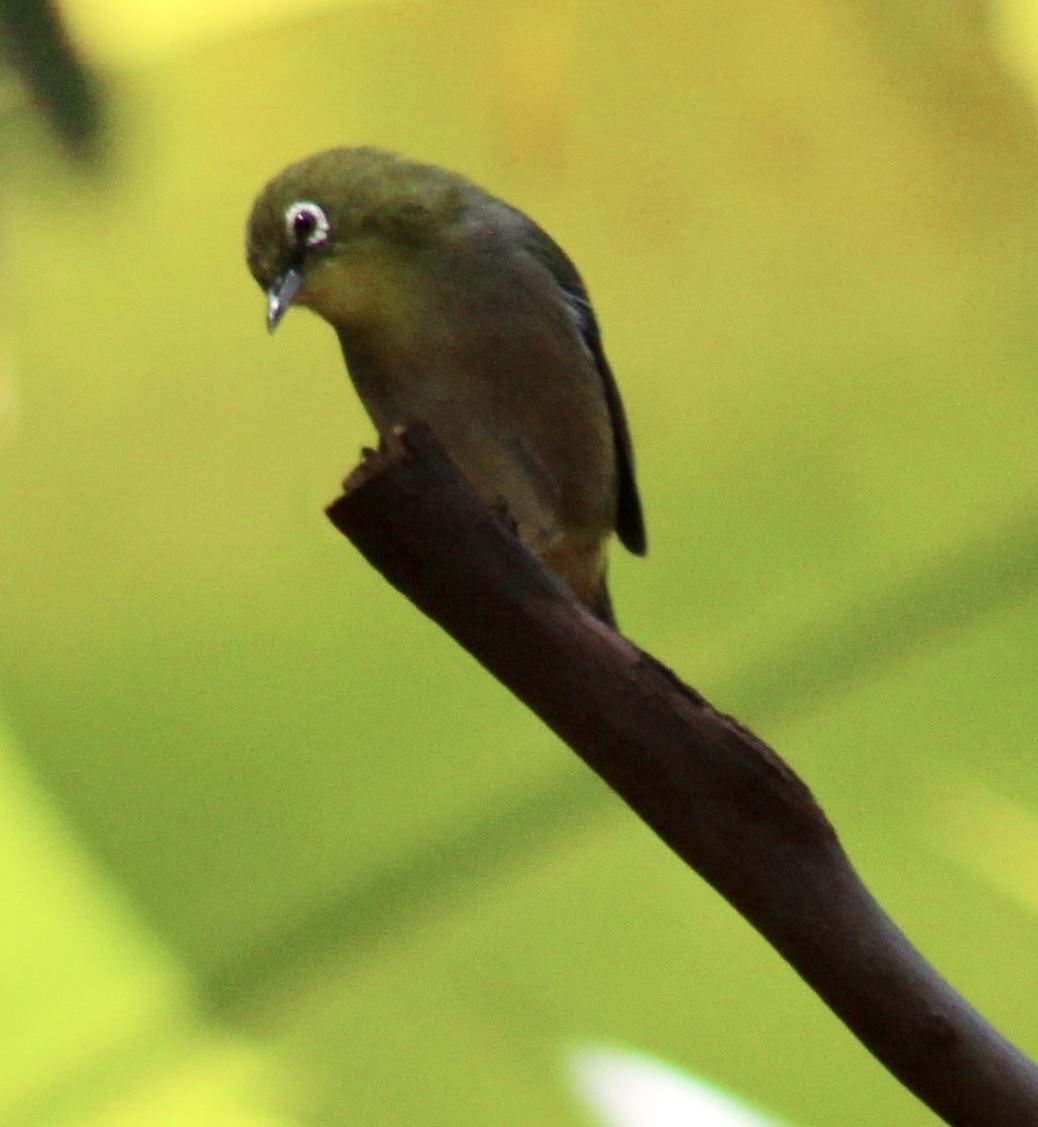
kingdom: Animalia
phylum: Chordata
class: Aves
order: Passeriformes
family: Zosteropidae
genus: Zosterops
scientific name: Zosterops japonicus
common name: Japanese white-eye
